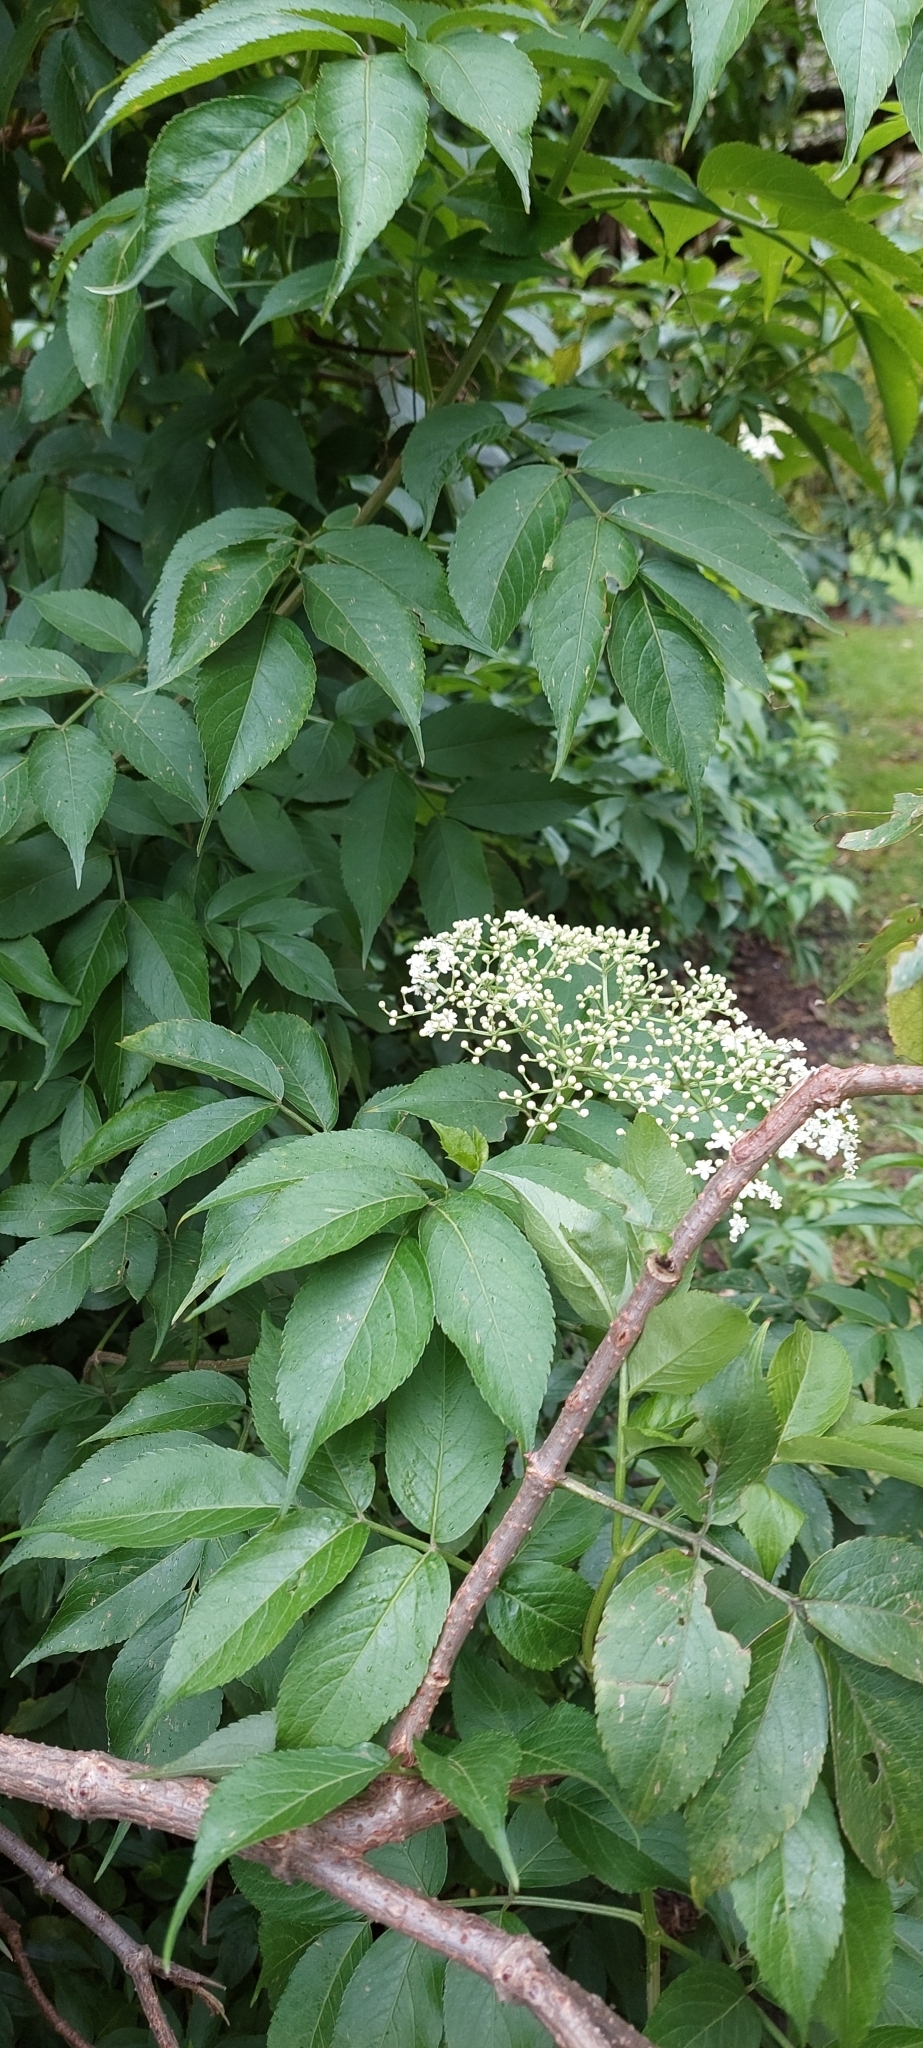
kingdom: Plantae
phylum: Tracheophyta
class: Magnoliopsida
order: Dipsacales
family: Viburnaceae
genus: Sambucus
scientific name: Sambucus nigra
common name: Elder
